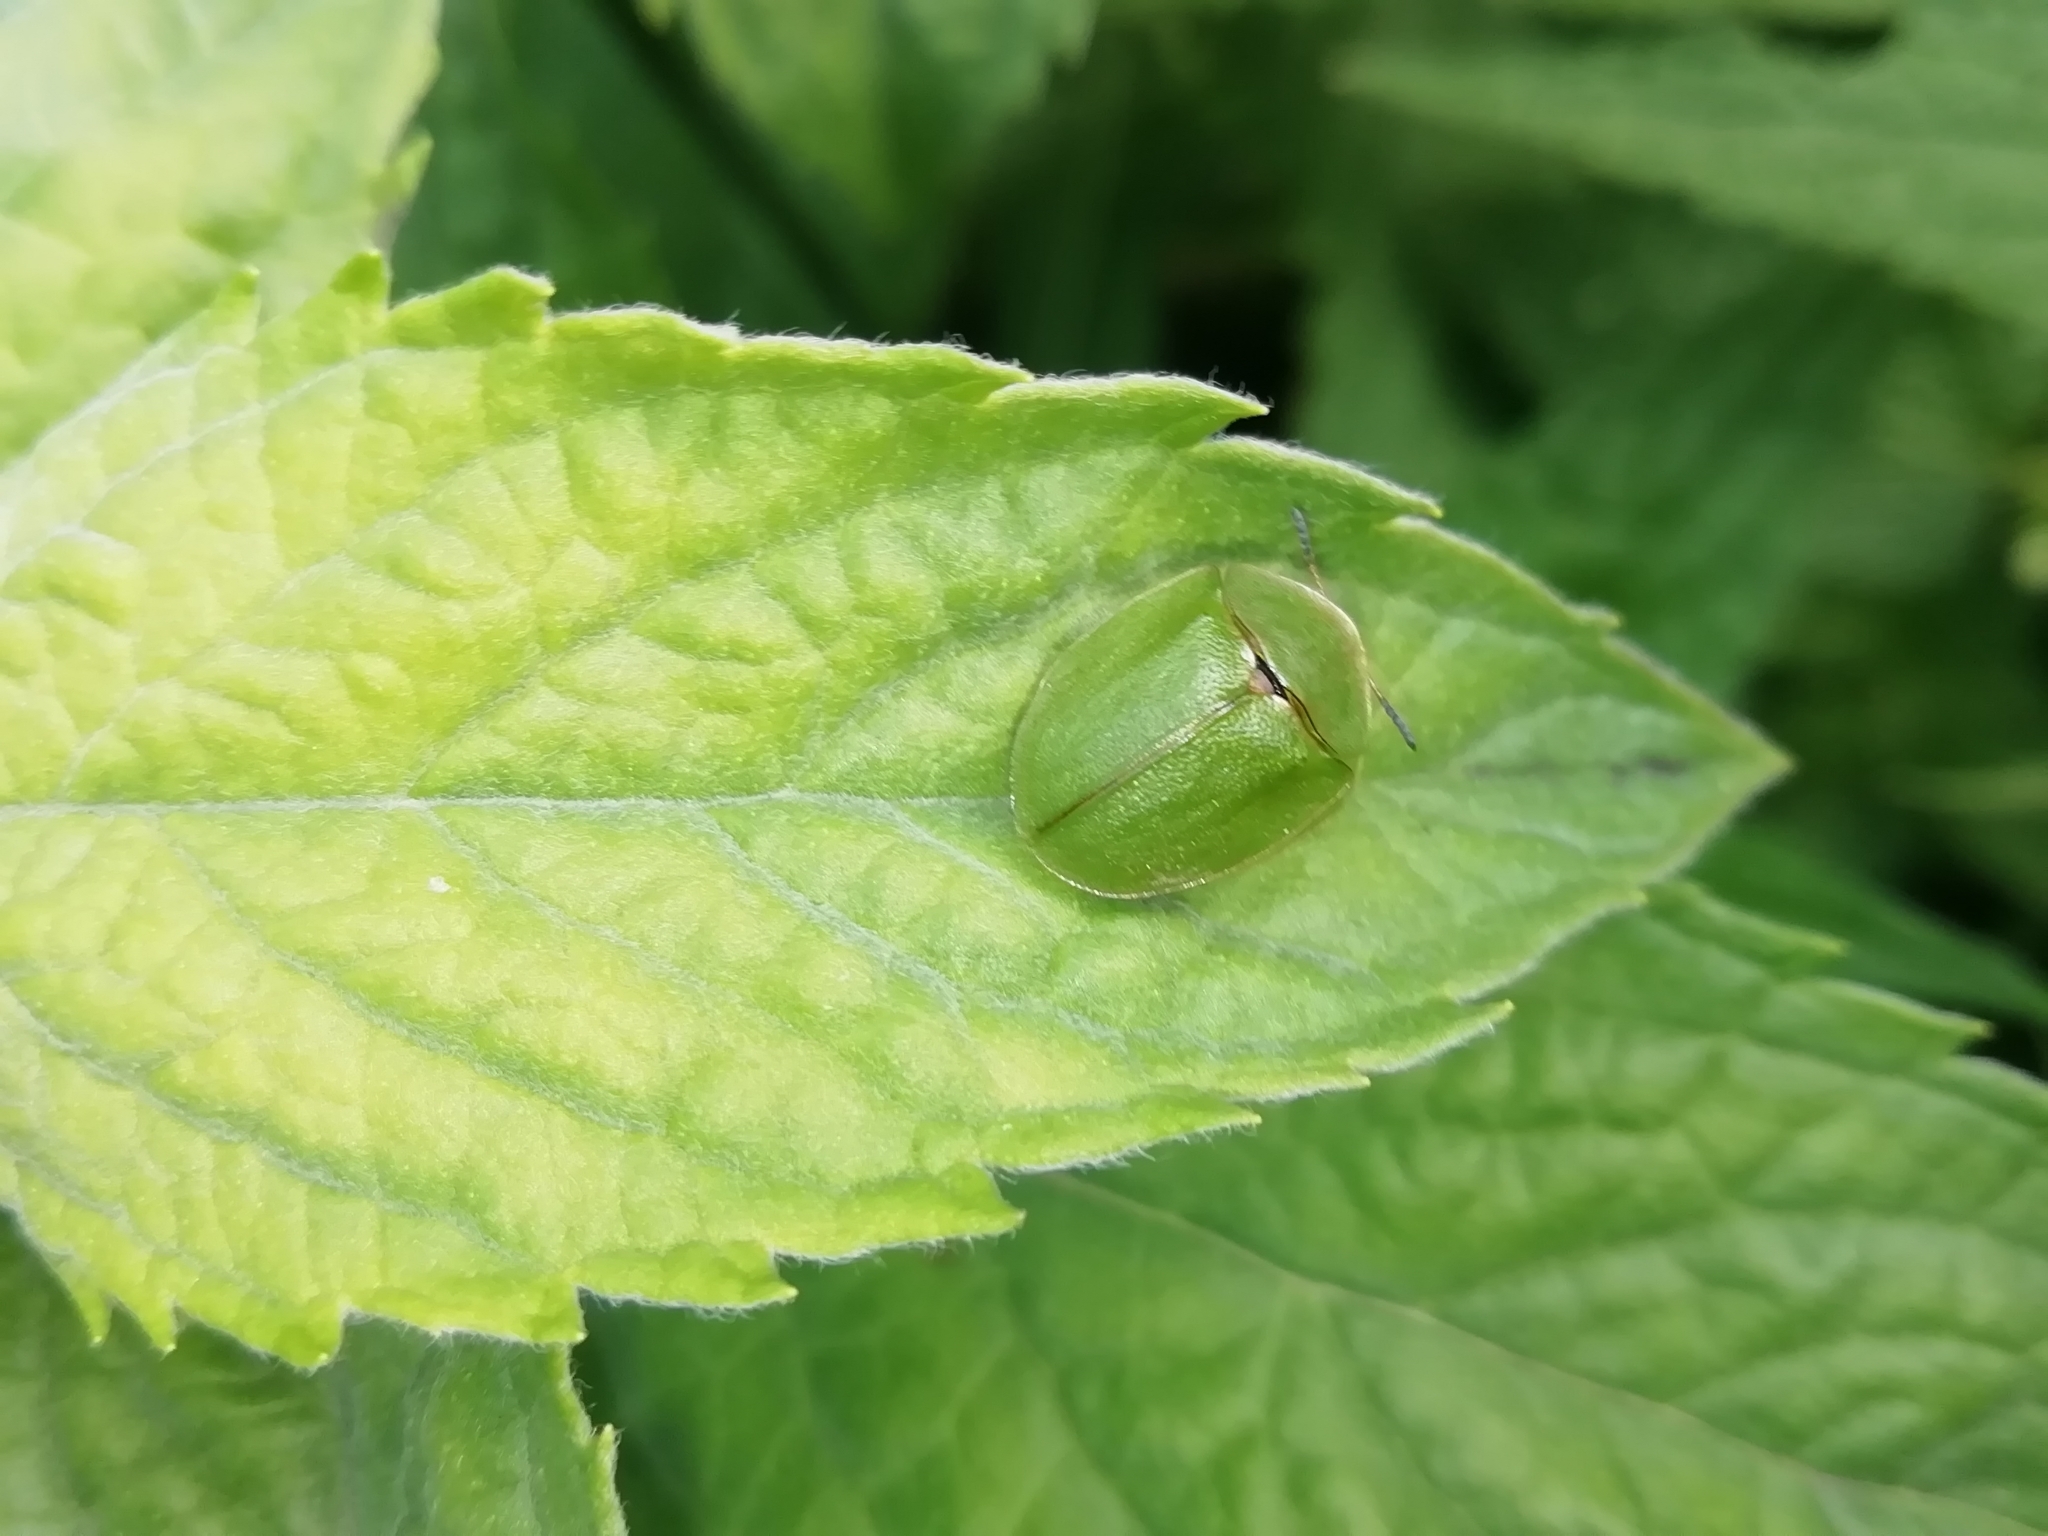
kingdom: Animalia
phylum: Arthropoda
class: Insecta
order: Coleoptera
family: Chrysomelidae
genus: Cassida
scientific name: Cassida viridis
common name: Green tortoise beetle
